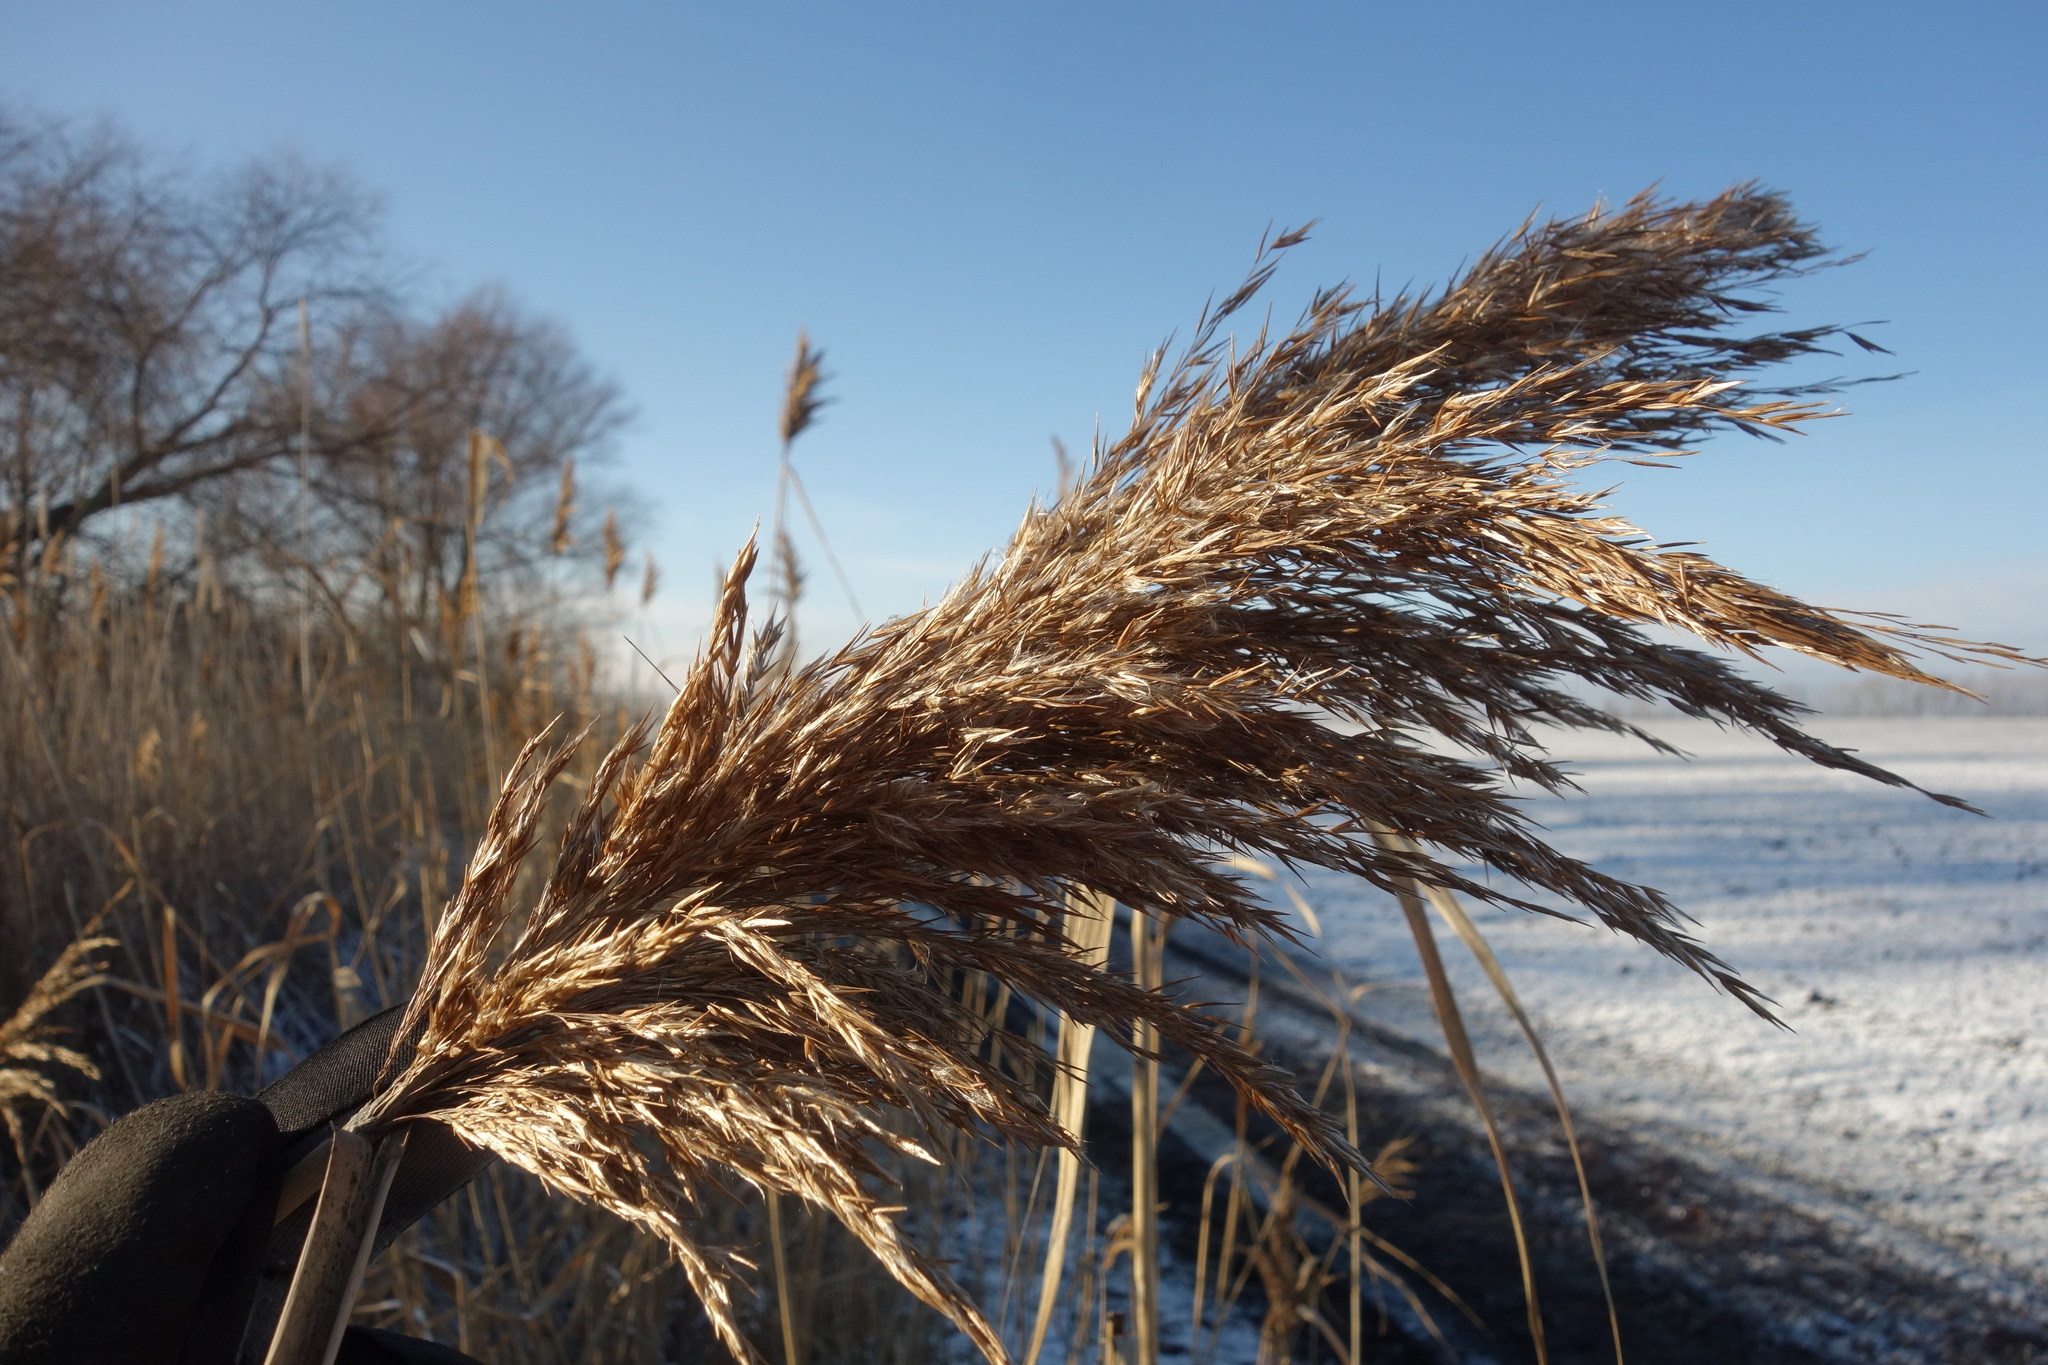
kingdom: Plantae
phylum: Tracheophyta
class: Liliopsida
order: Poales
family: Poaceae
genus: Phragmites
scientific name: Phragmites australis
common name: Common reed
